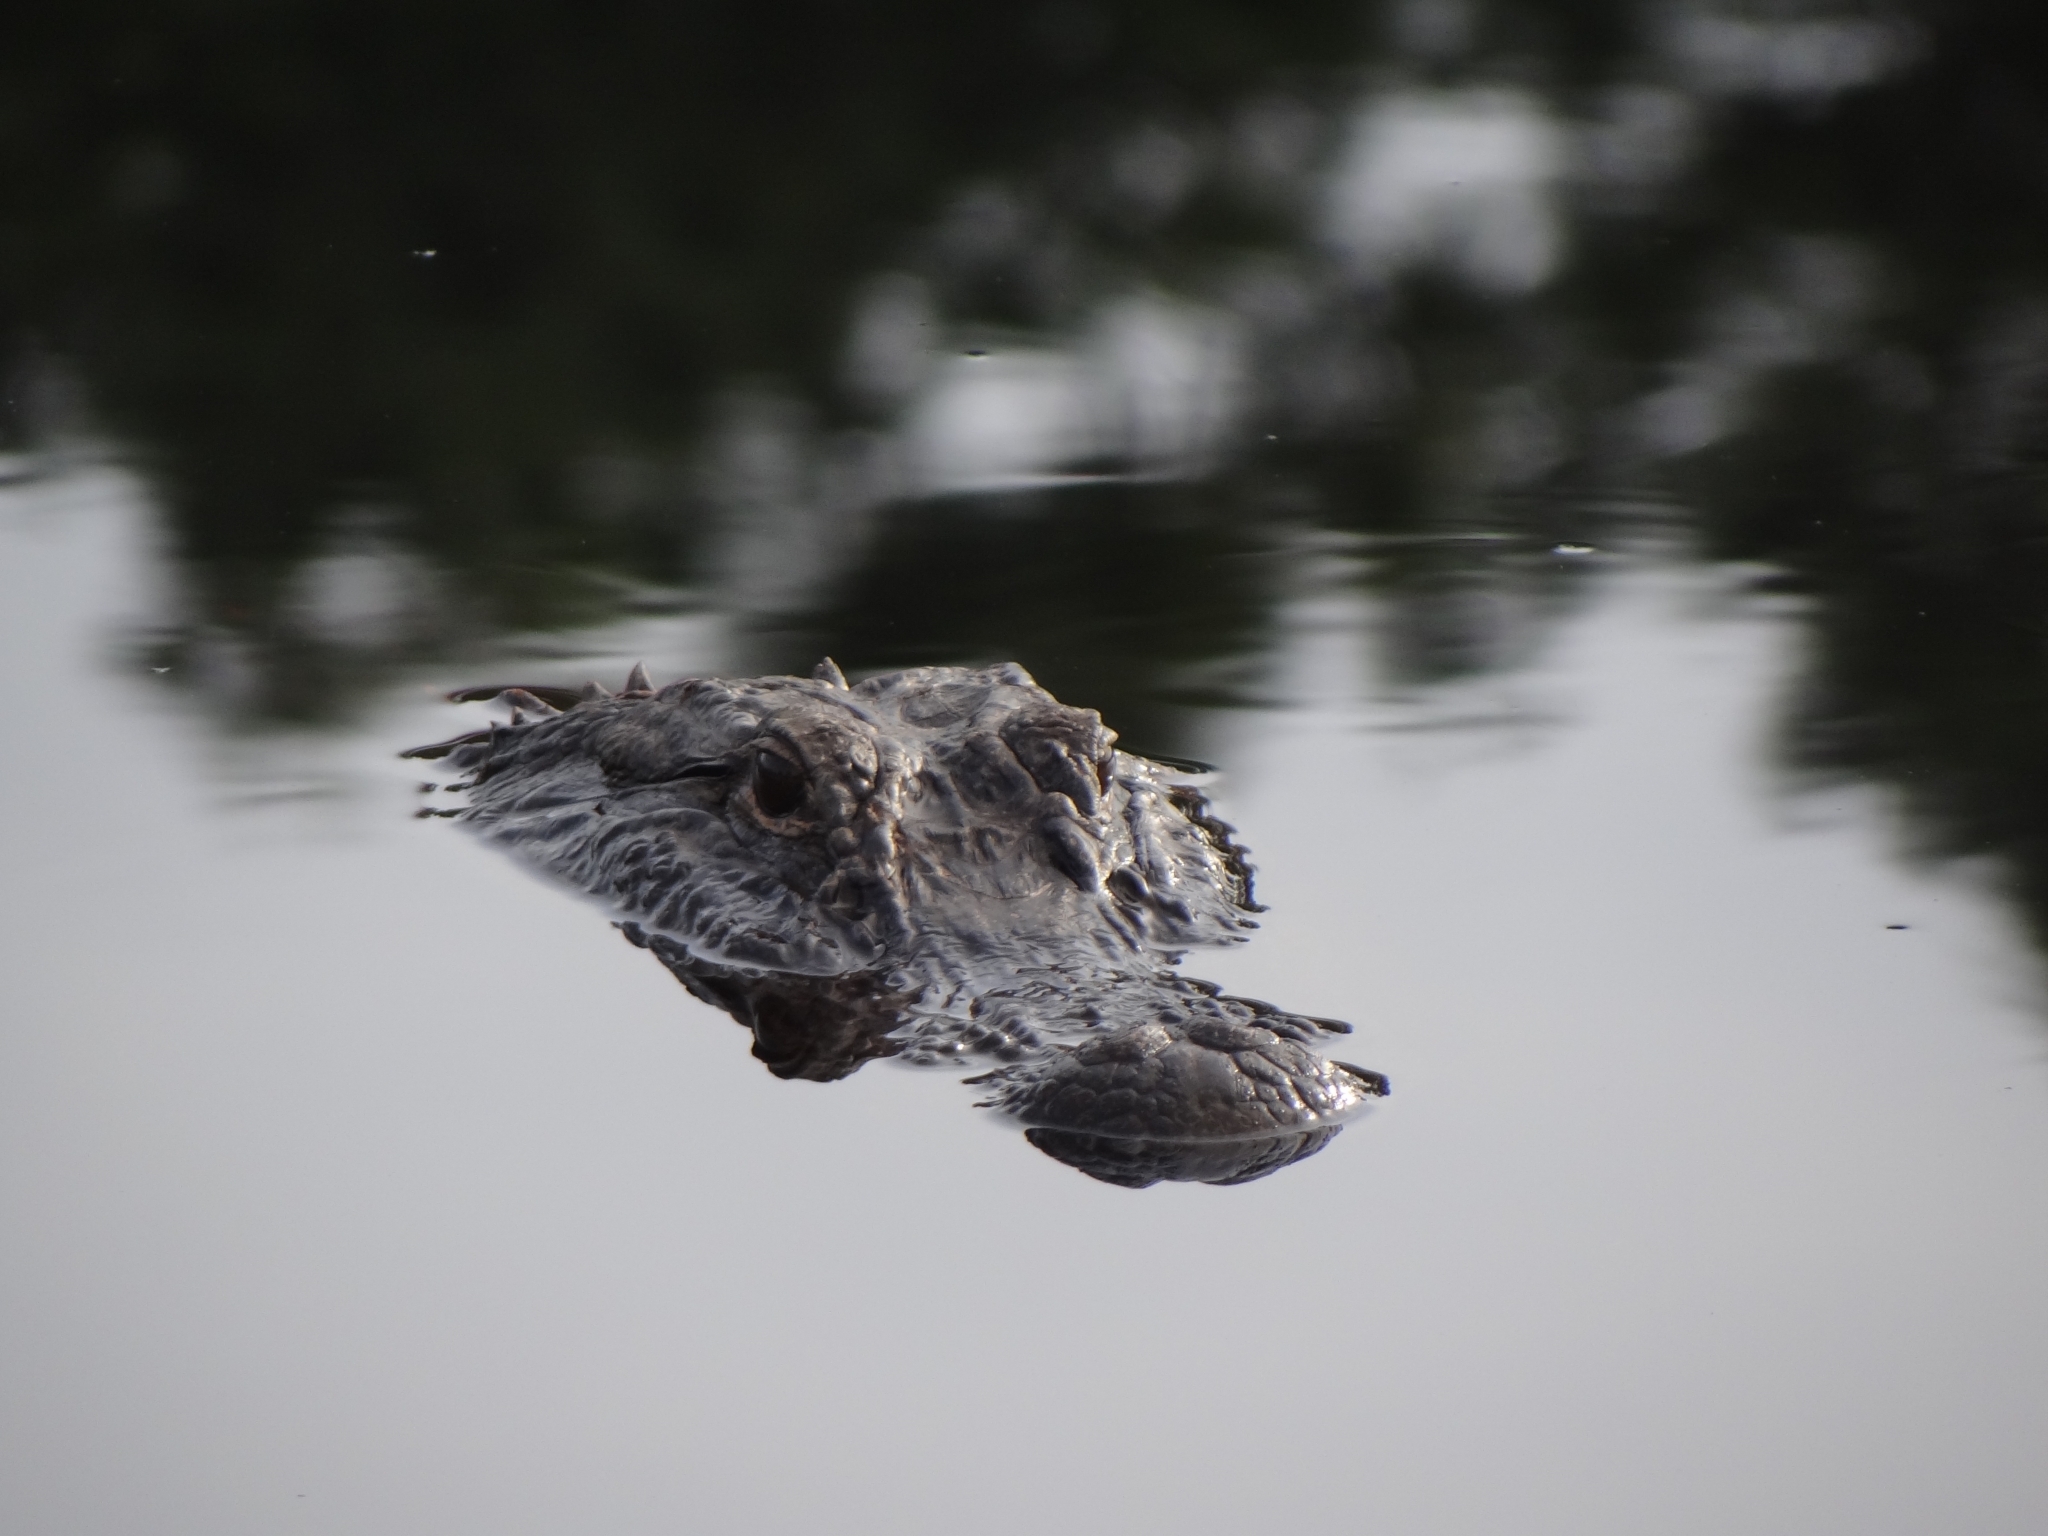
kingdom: Animalia
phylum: Chordata
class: Crocodylia
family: Alligatoridae
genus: Alligator
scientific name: Alligator mississippiensis
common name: American alligator
